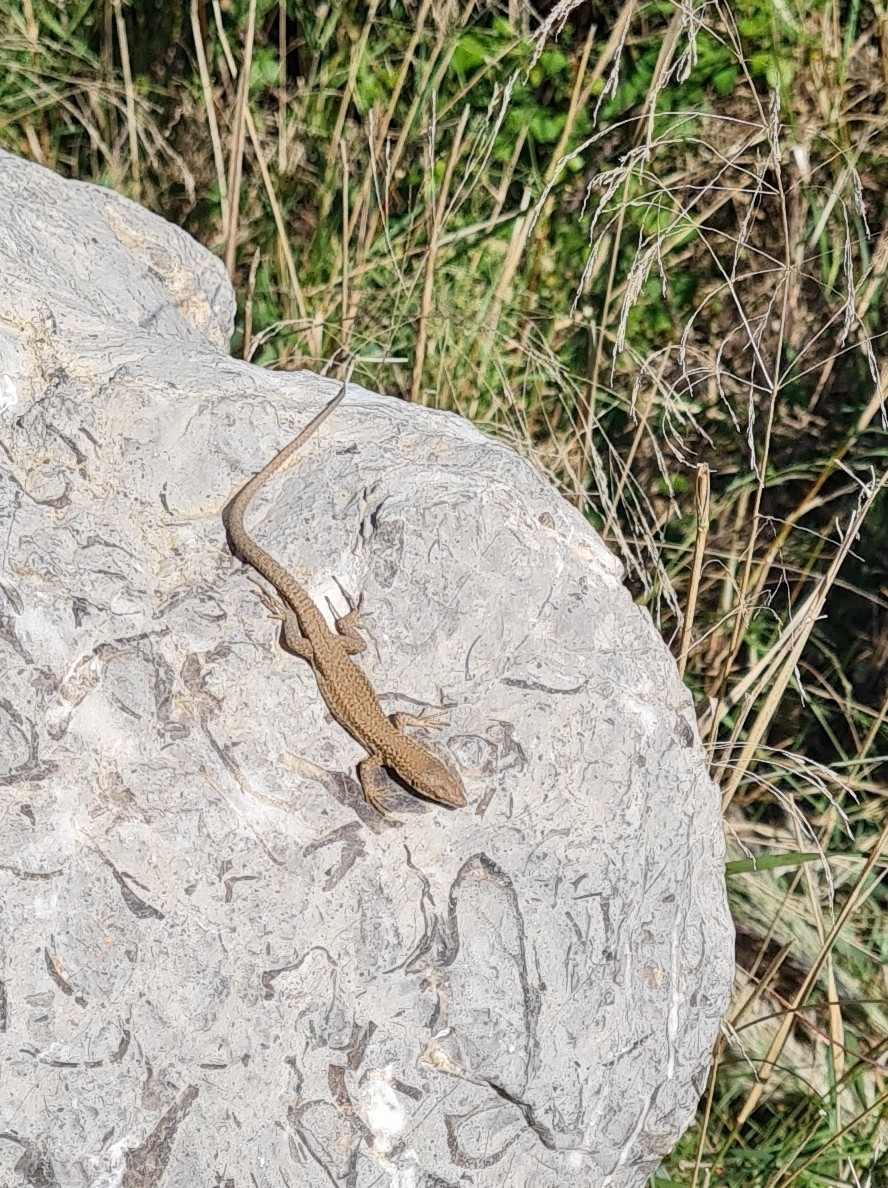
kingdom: Animalia
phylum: Chordata
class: Squamata
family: Lacertidae
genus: Podarcis
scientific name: Podarcis liolepis
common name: Catalonian wall lizard
